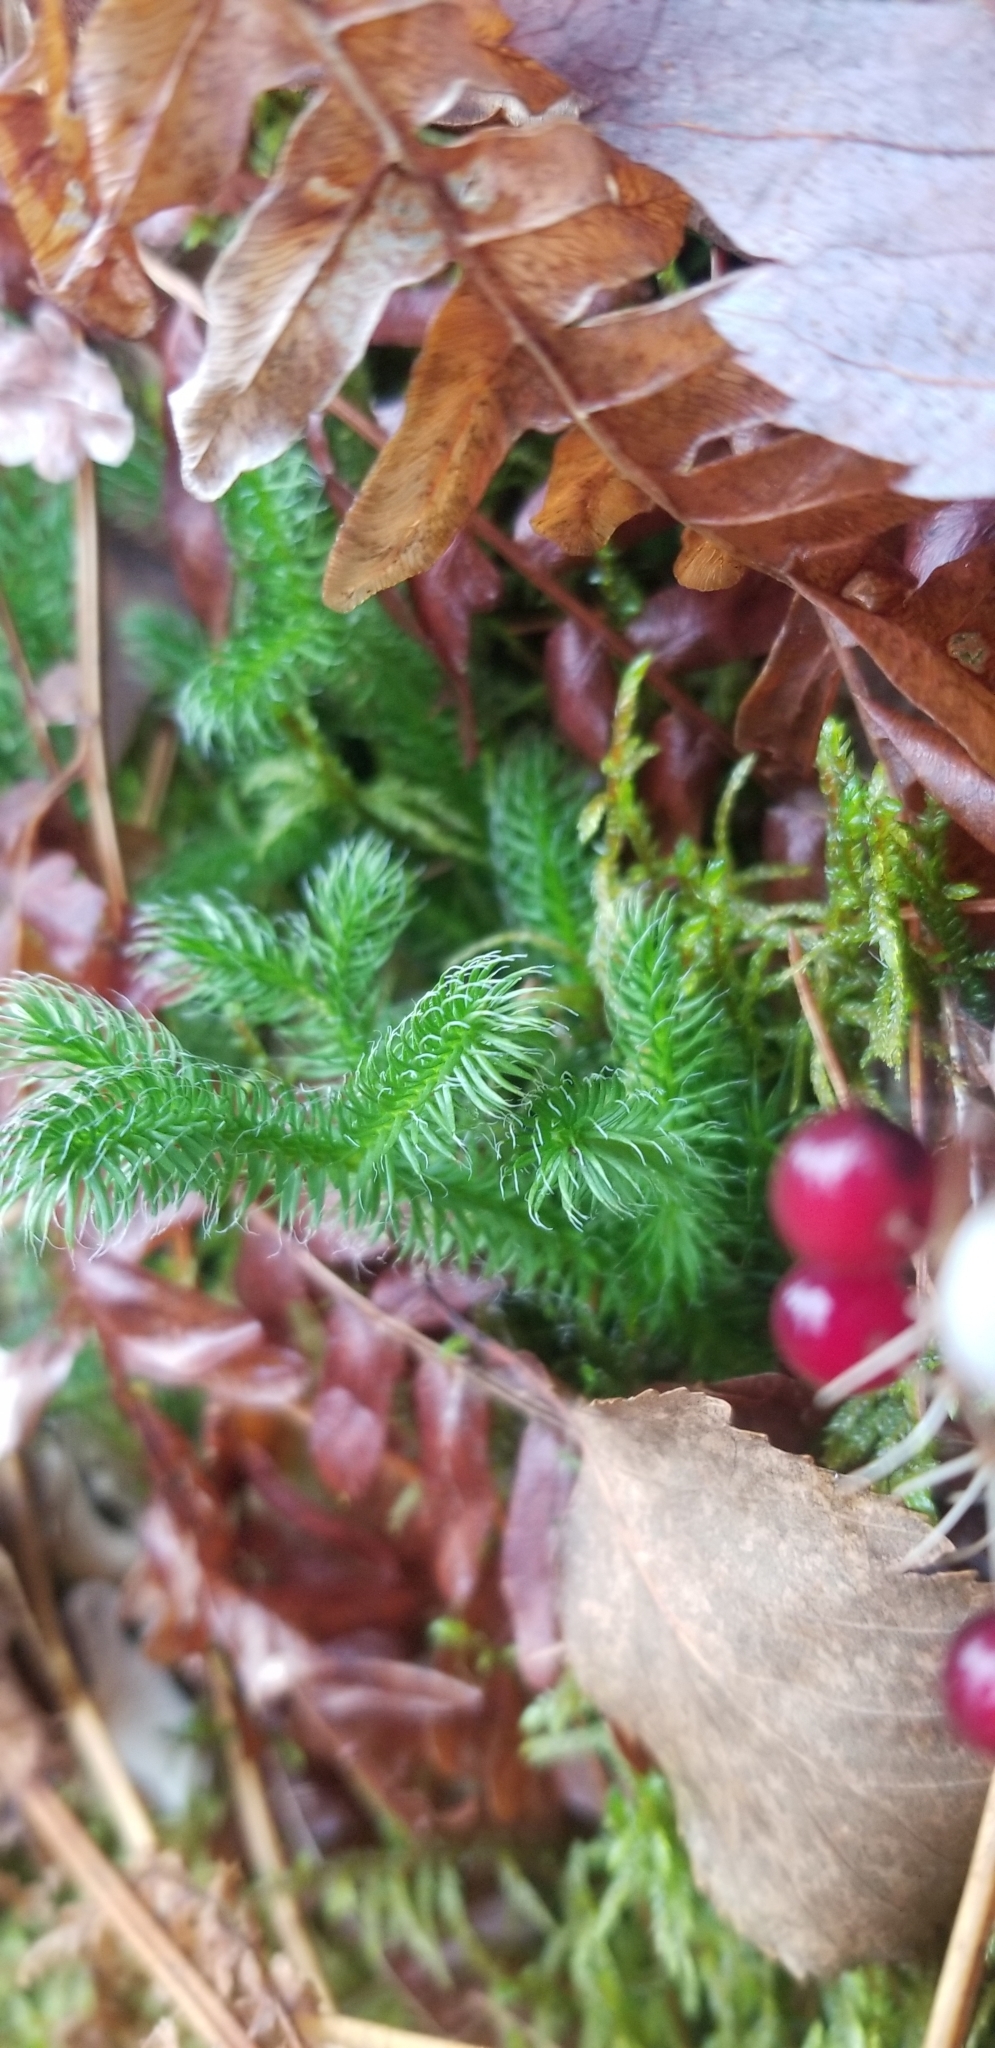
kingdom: Plantae
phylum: Tracheophyta
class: Lycopodiopsida
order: Lycopodiales
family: Lycopodiaceae
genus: Lycopodium
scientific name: Lycopodium clavatum
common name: Stag's-horn clubmoss
